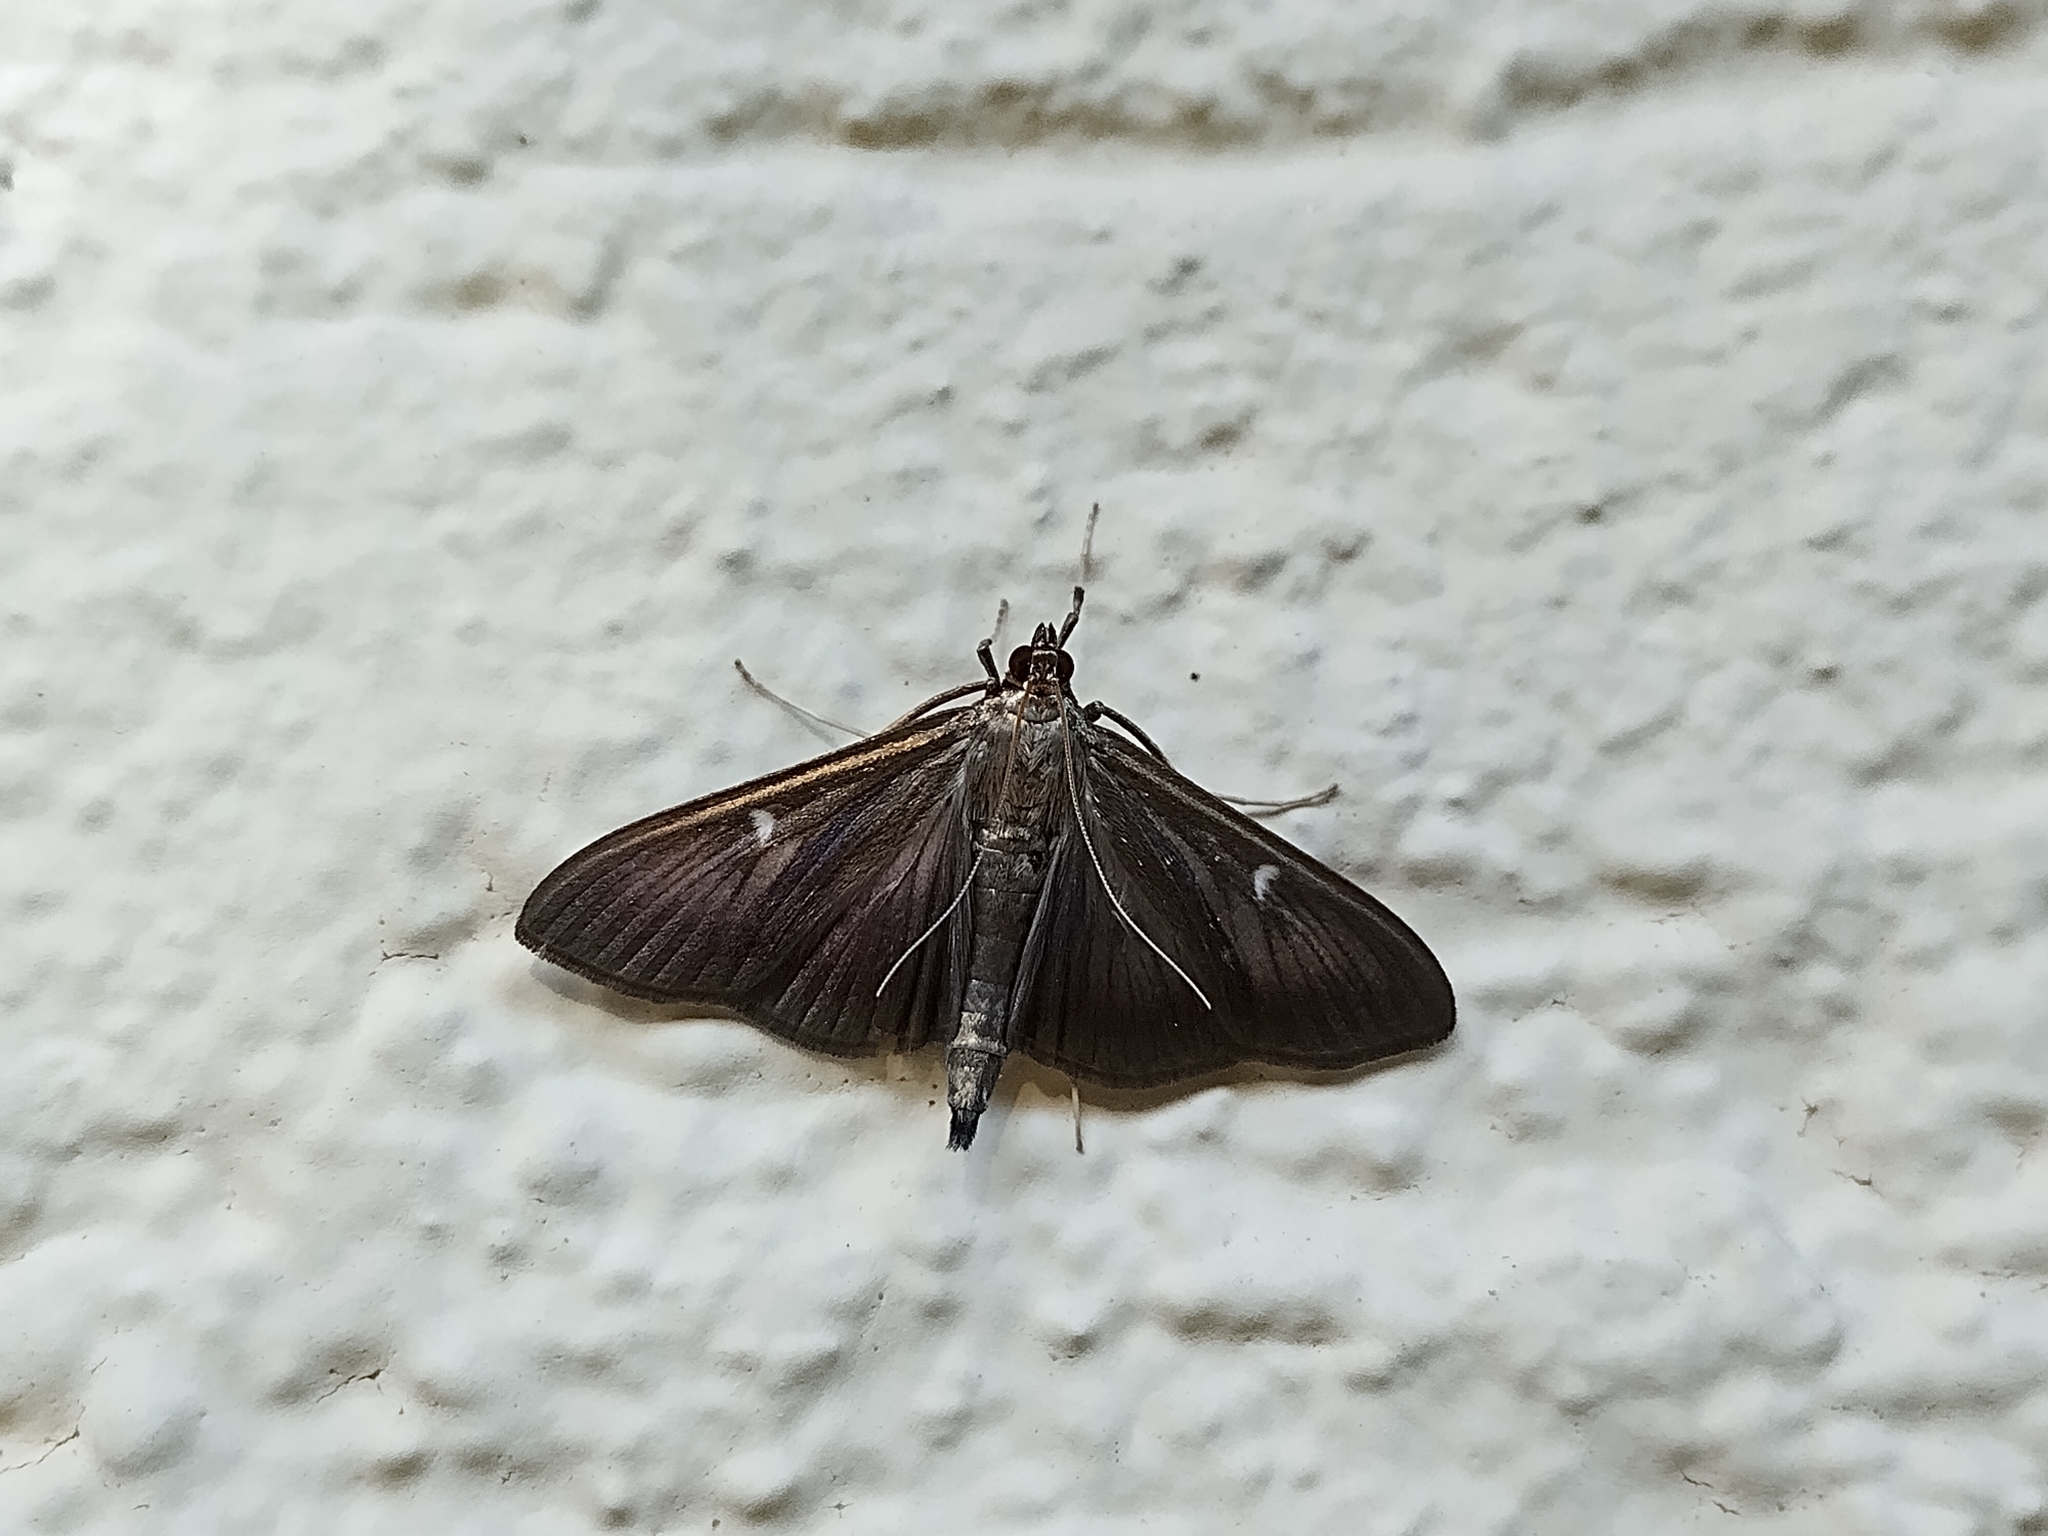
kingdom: Animalia
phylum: Arthropoda
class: Insecta
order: Lepidoptera
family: Crambidae
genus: Cydalima
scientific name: Cydalima perspectalis
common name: Box tree moth
